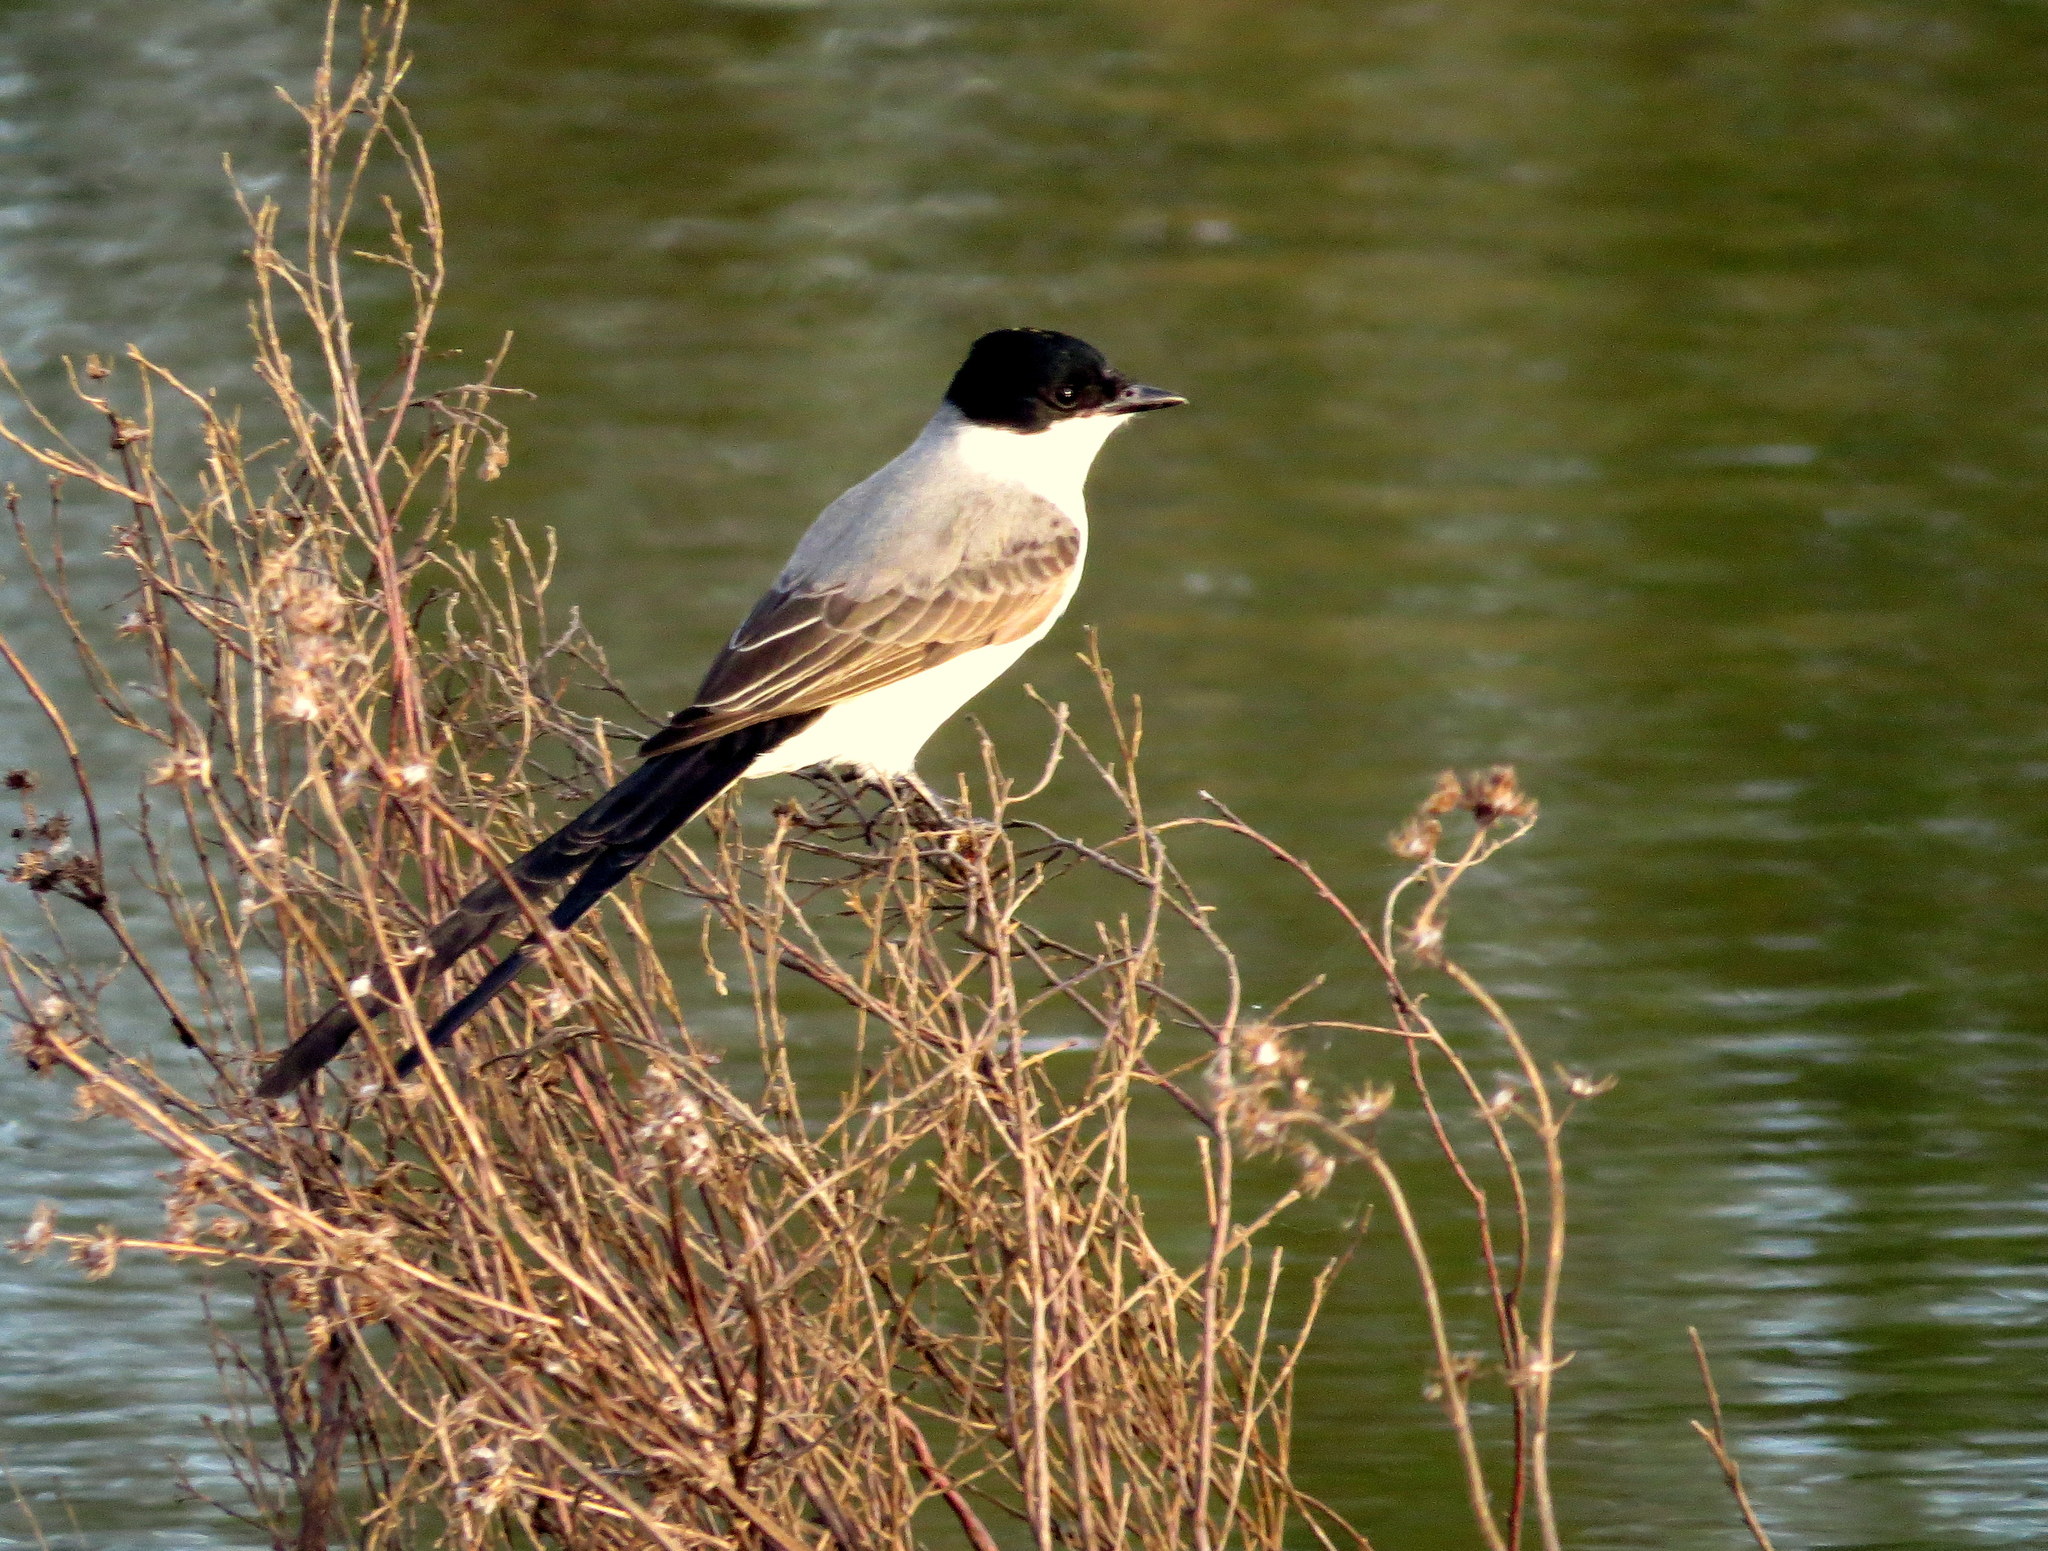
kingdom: Animalia
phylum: Chordata
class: Aves
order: Passeriformes
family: Tyrannidae
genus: Tyrannus
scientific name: Tyrannus savana
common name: Fork-tailed flycatcher
